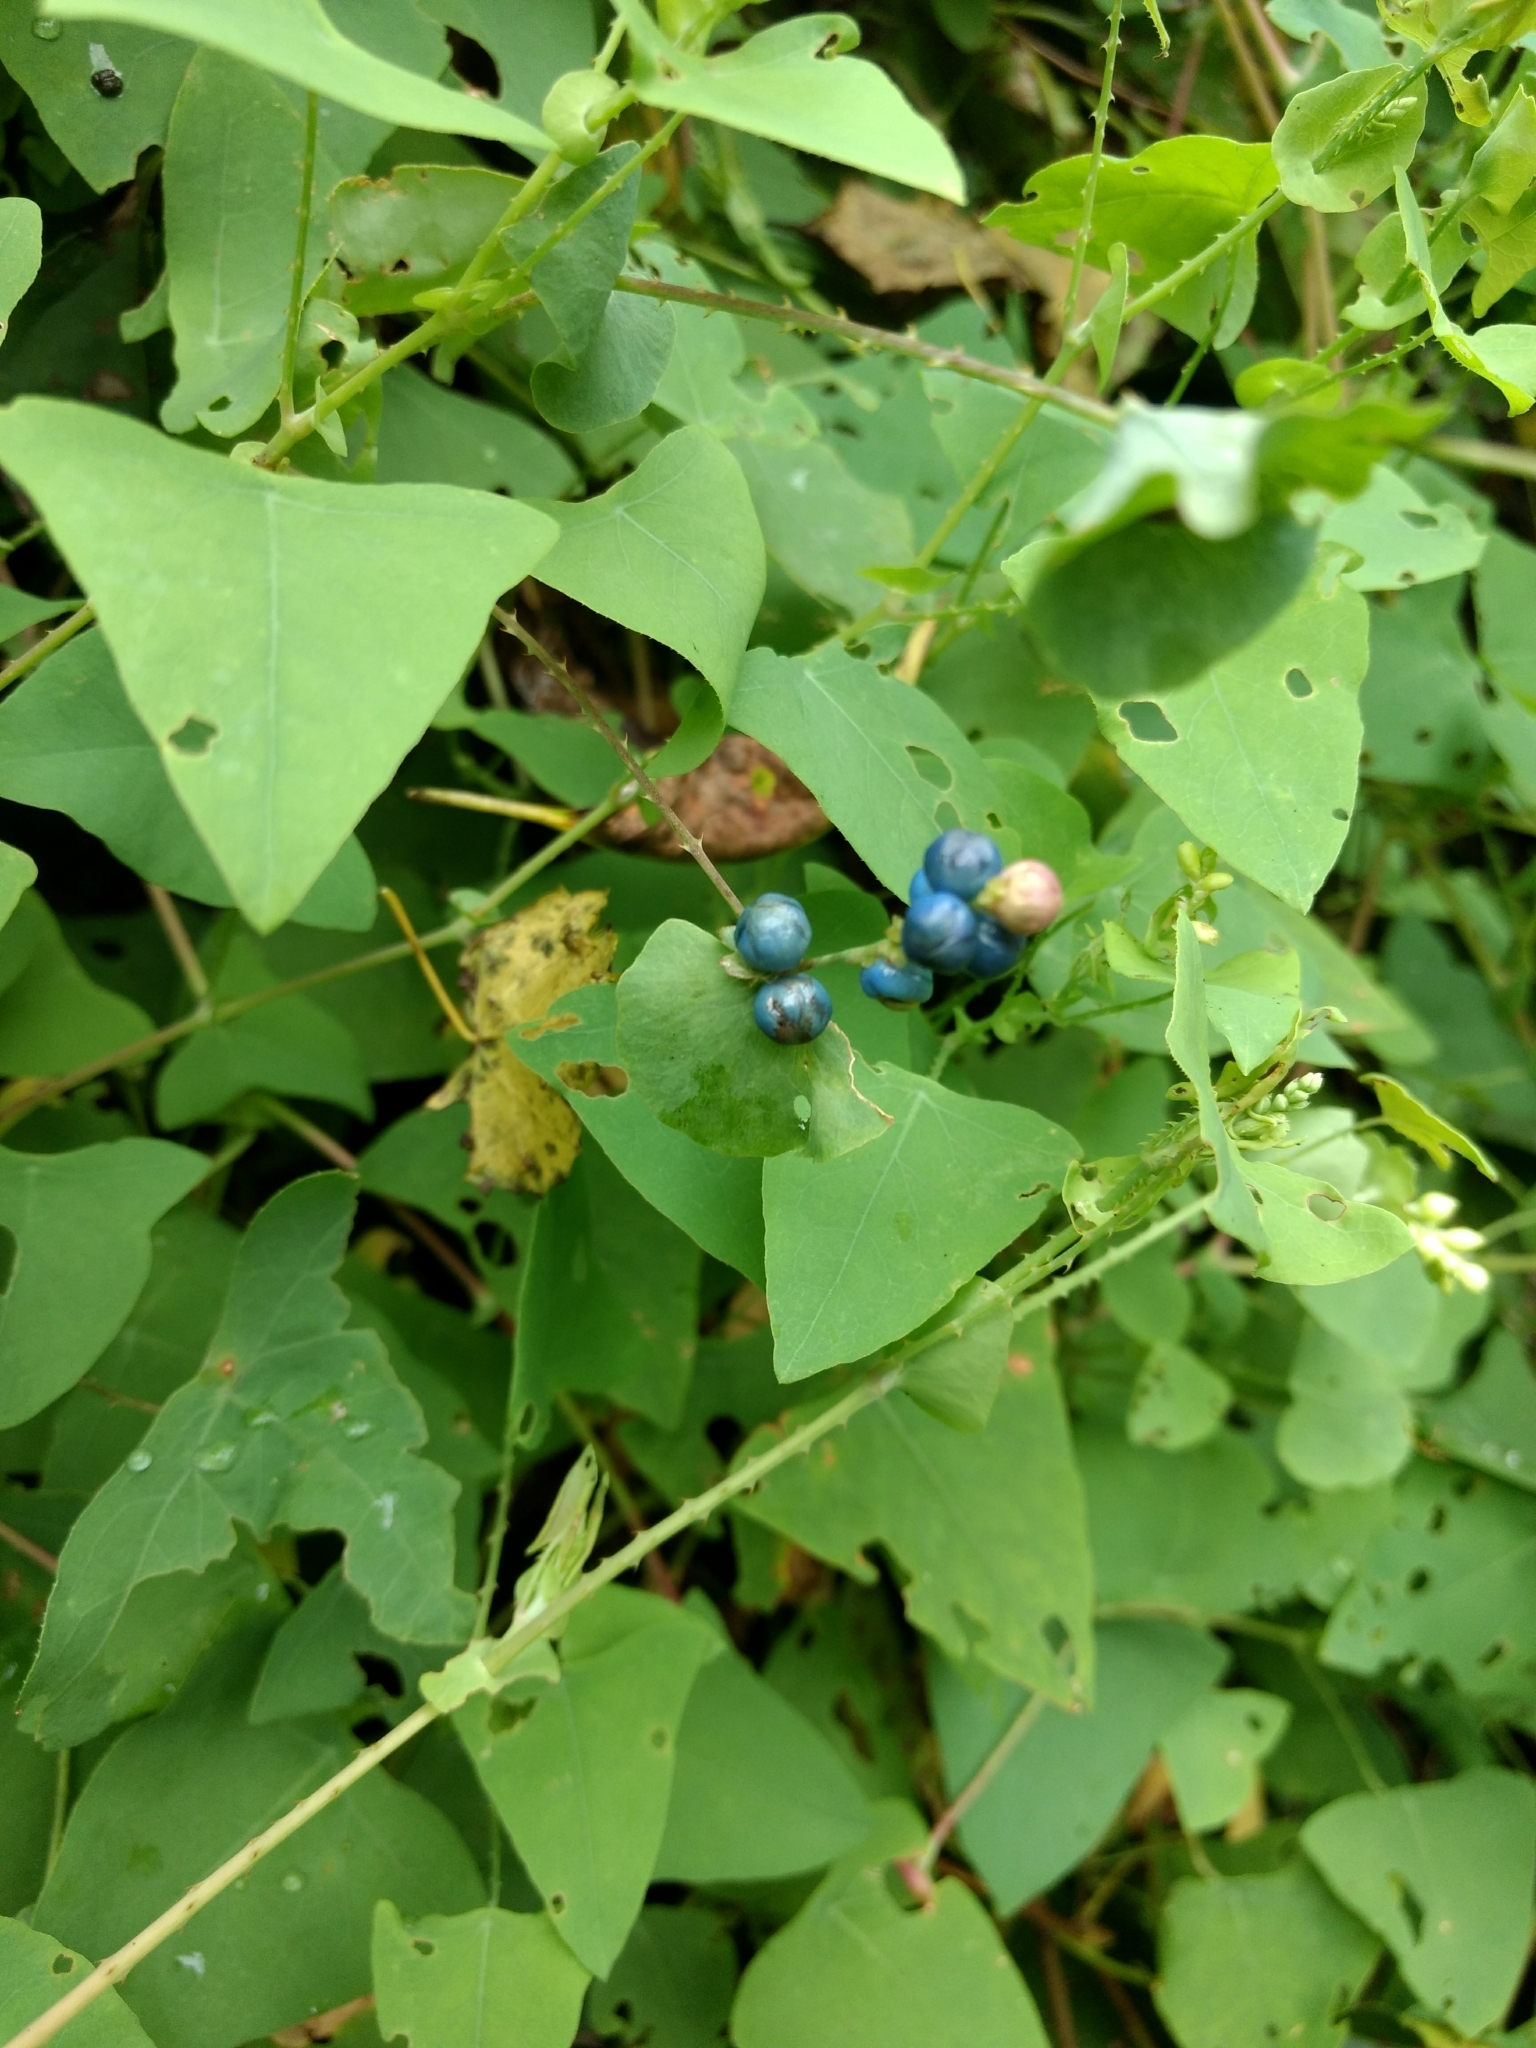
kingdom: Plantae
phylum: Tracheophyta
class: Magnoliopsida
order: Caryophyllales
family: Polygonaceae
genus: Persicaria
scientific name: Persicaria perfoliata
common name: Asiatic tearthumb
